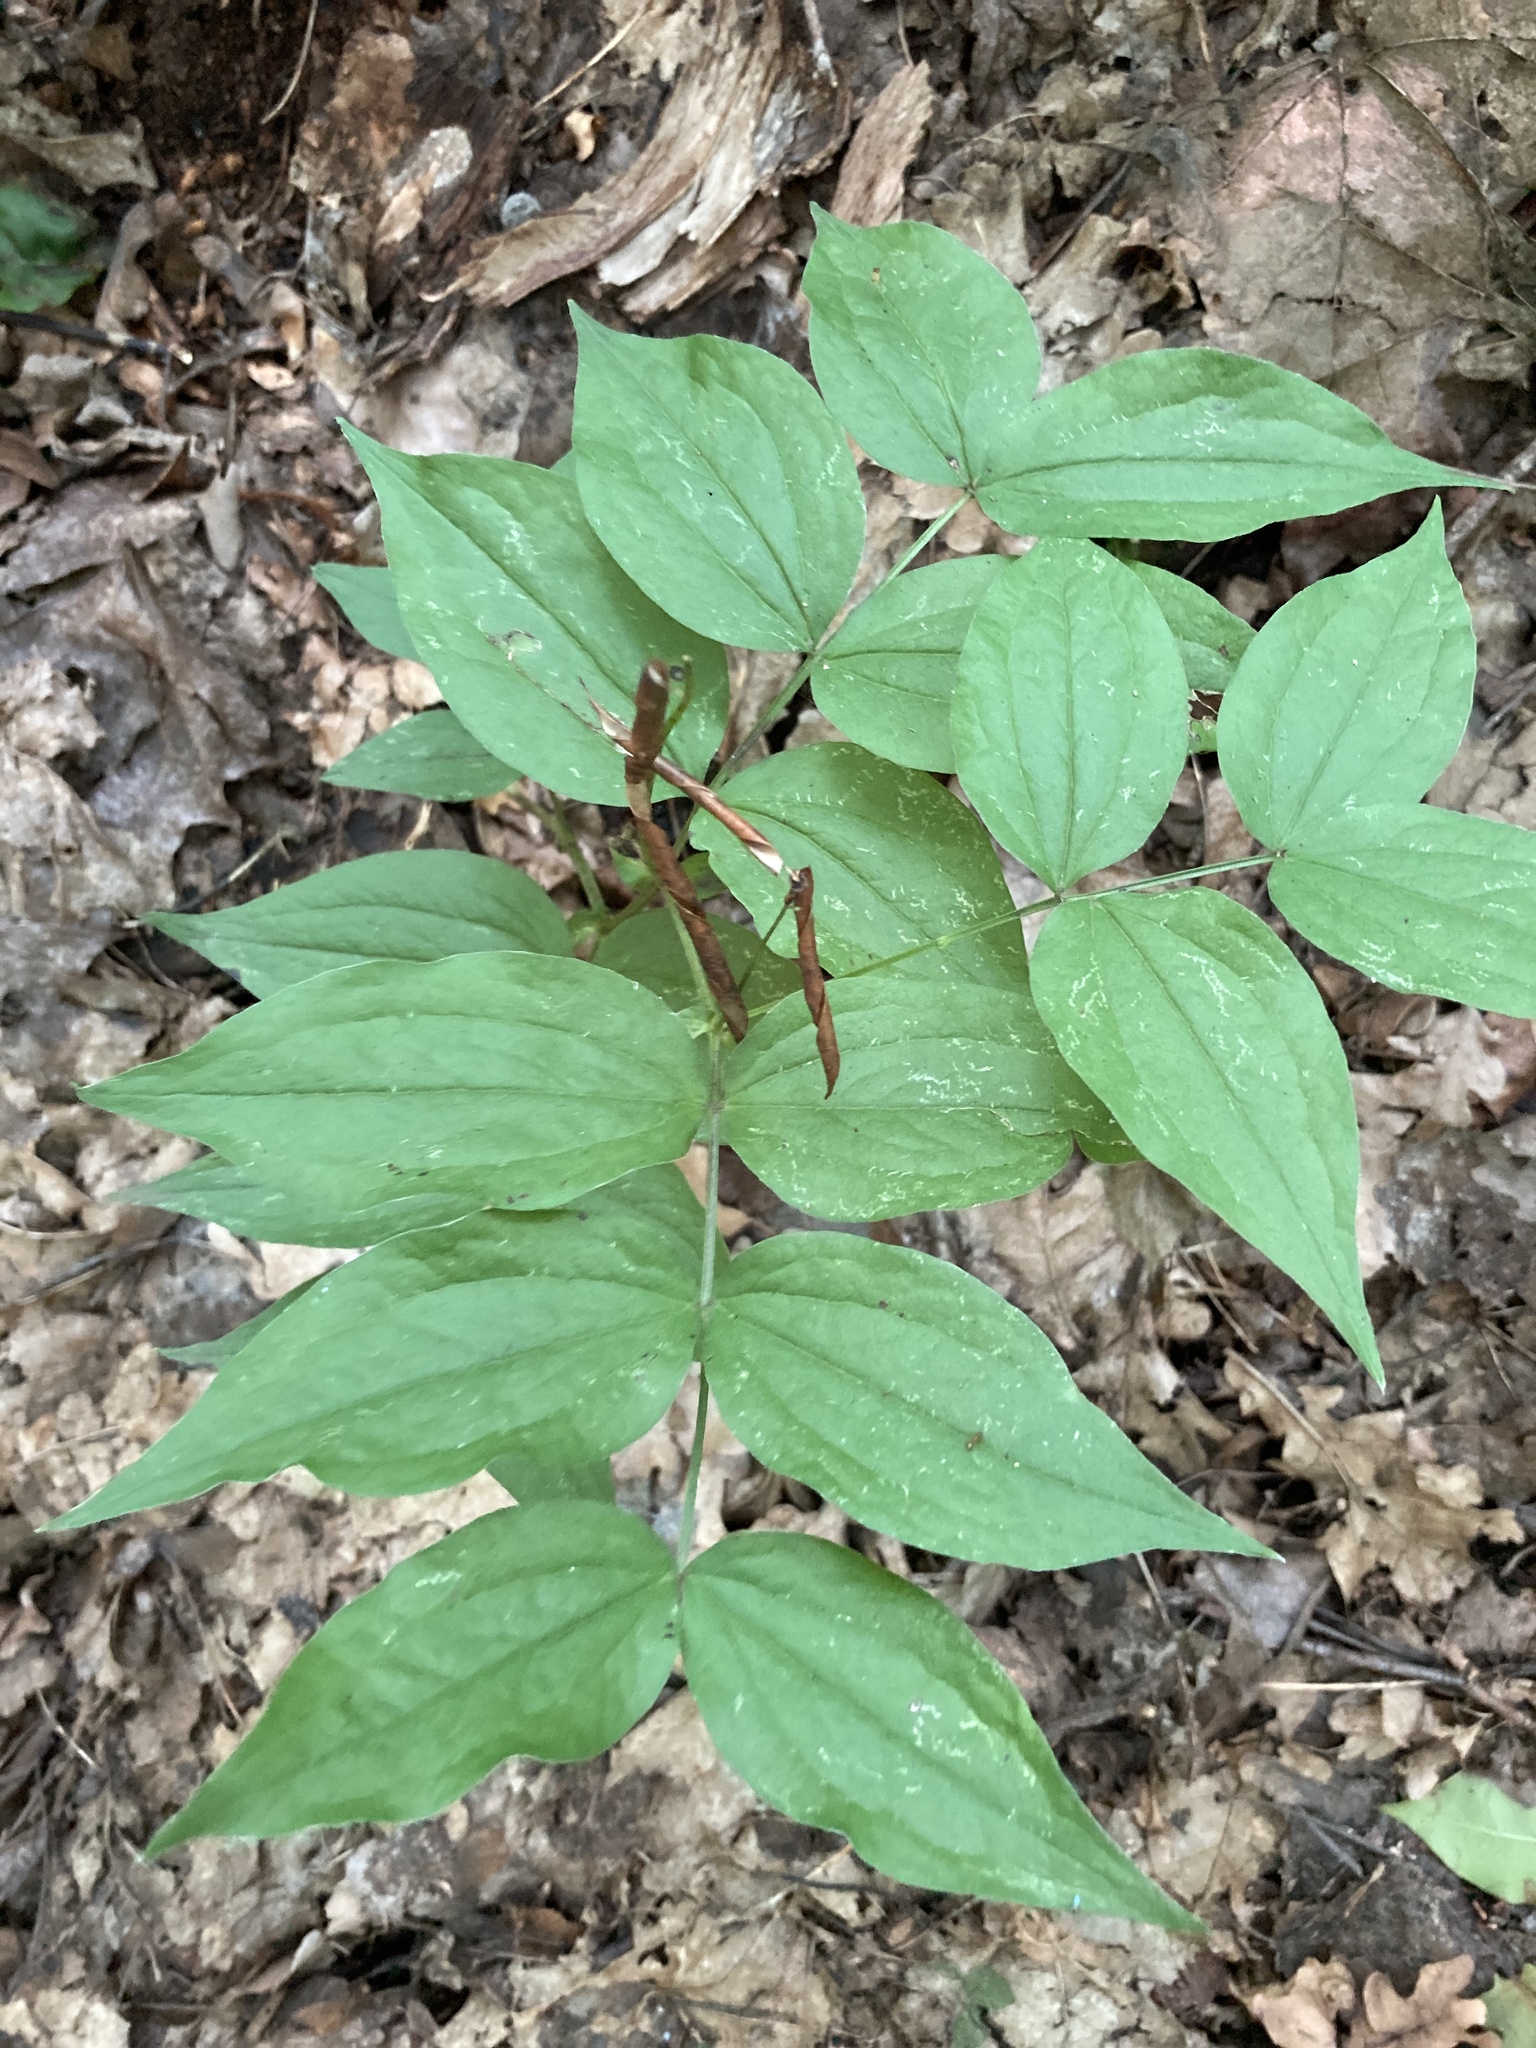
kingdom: Plantae
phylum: Tracheophyta
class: Magnoliopsida
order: Fabales
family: Fabaceae
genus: Lathyrus
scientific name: Lathyrus vernus
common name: Spring pea
